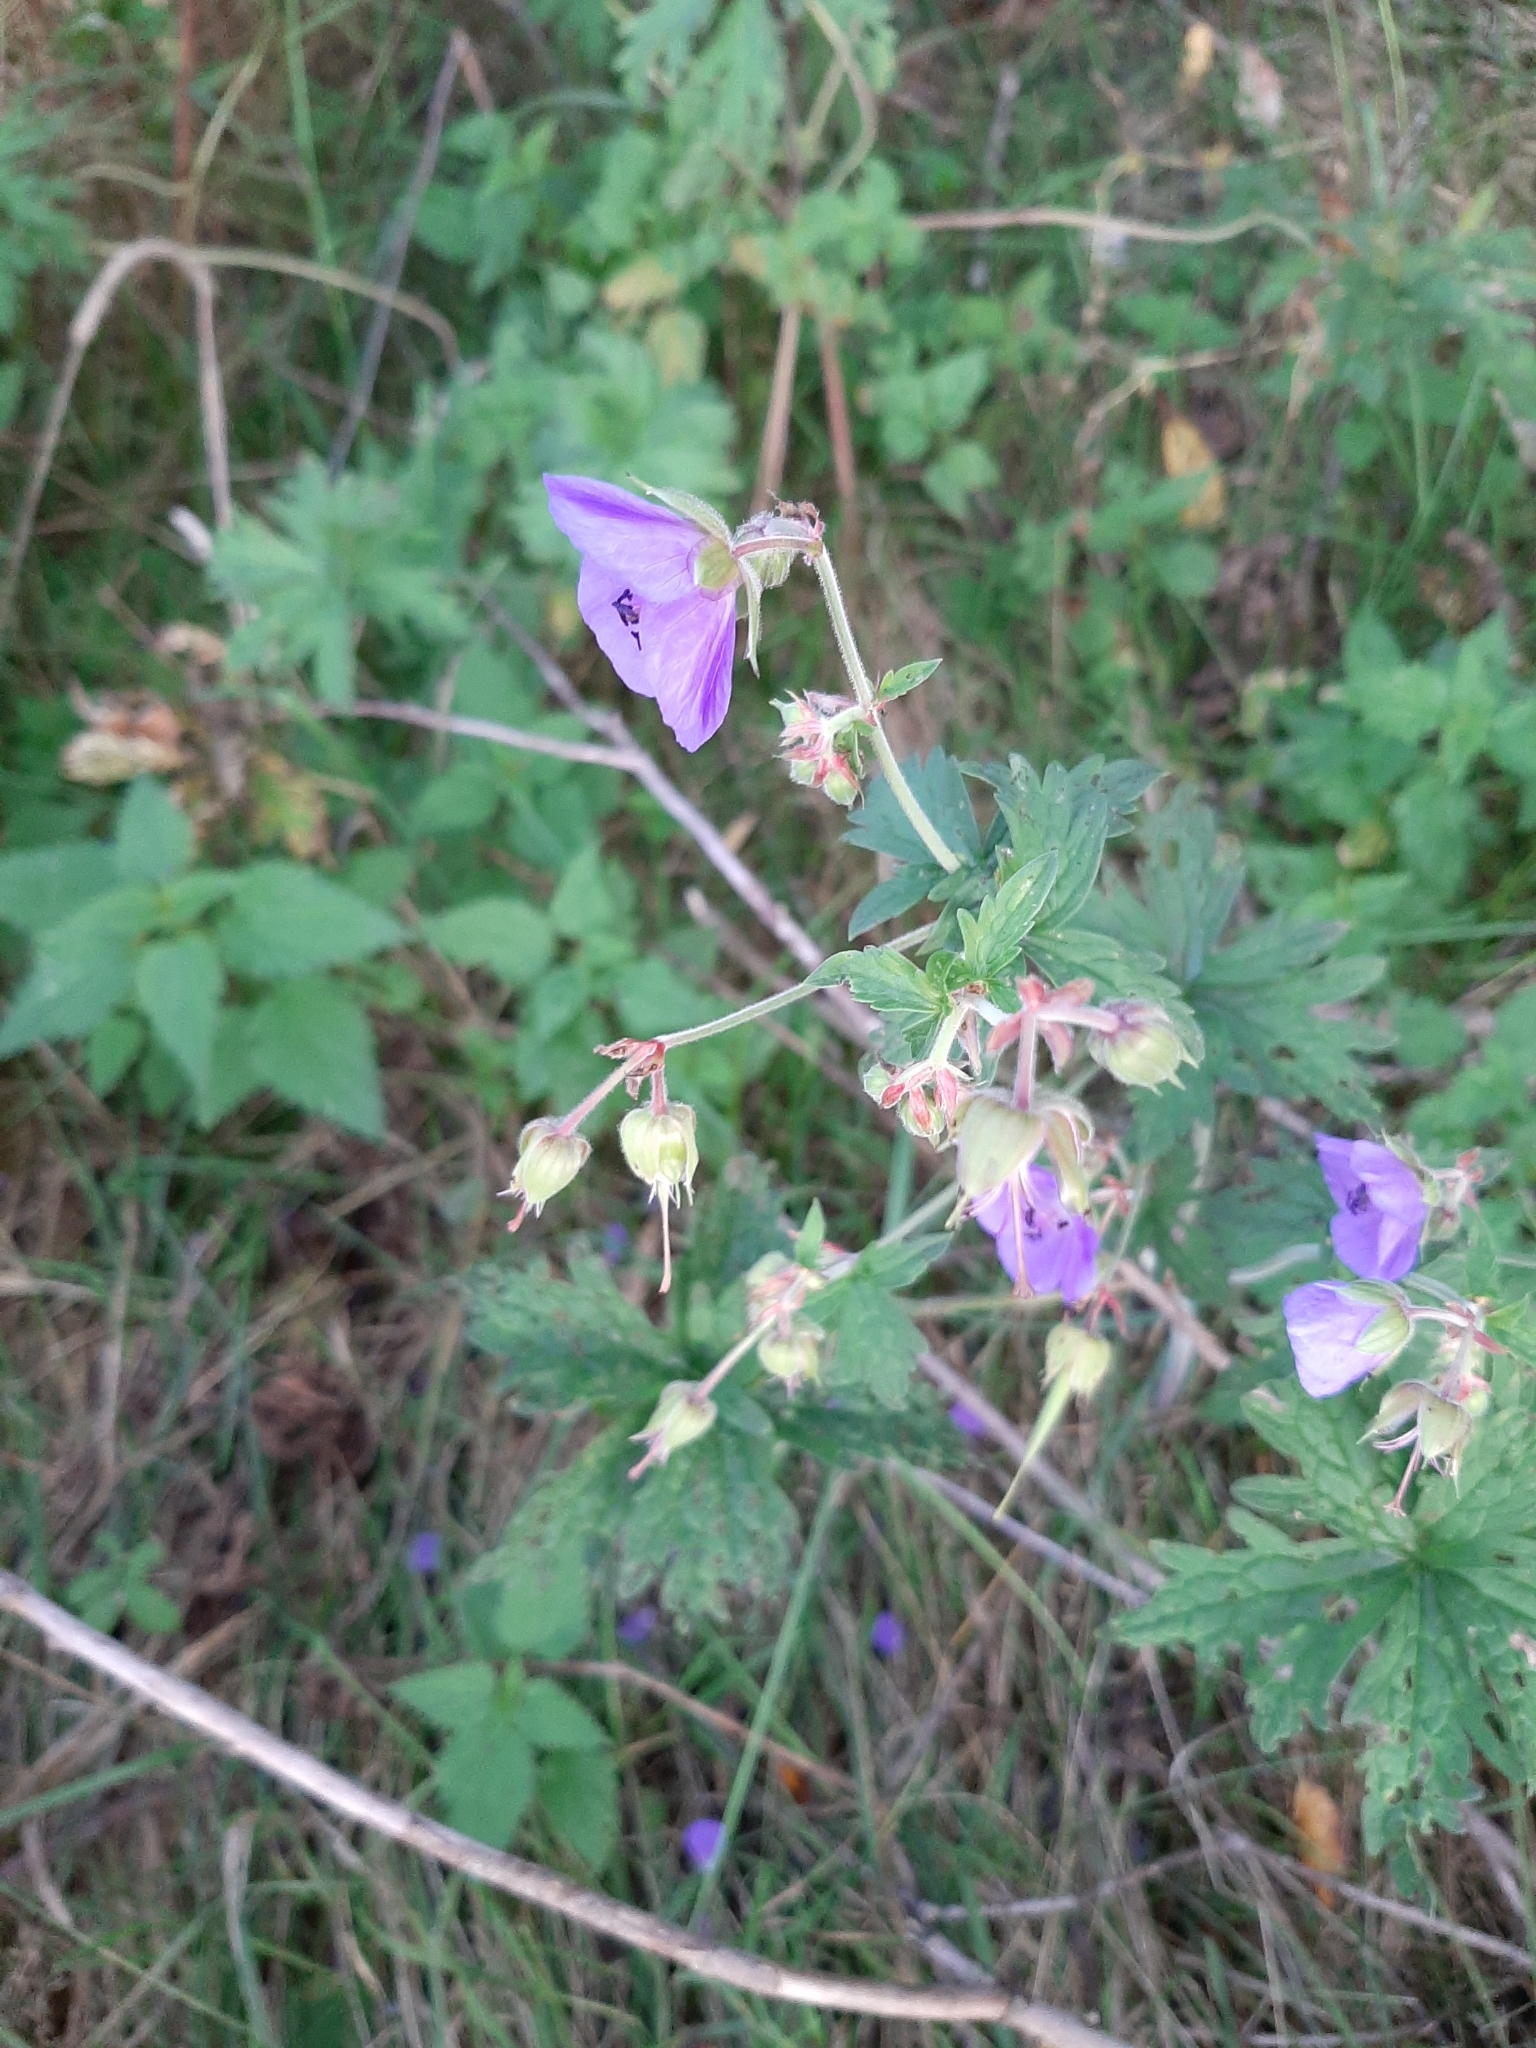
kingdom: Plantae
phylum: Tracheophyta
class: Magnoliopsida
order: Geraniales
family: Geraniaceae
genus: Geranium
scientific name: Geranium pratense
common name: Meadow crane's-bill
